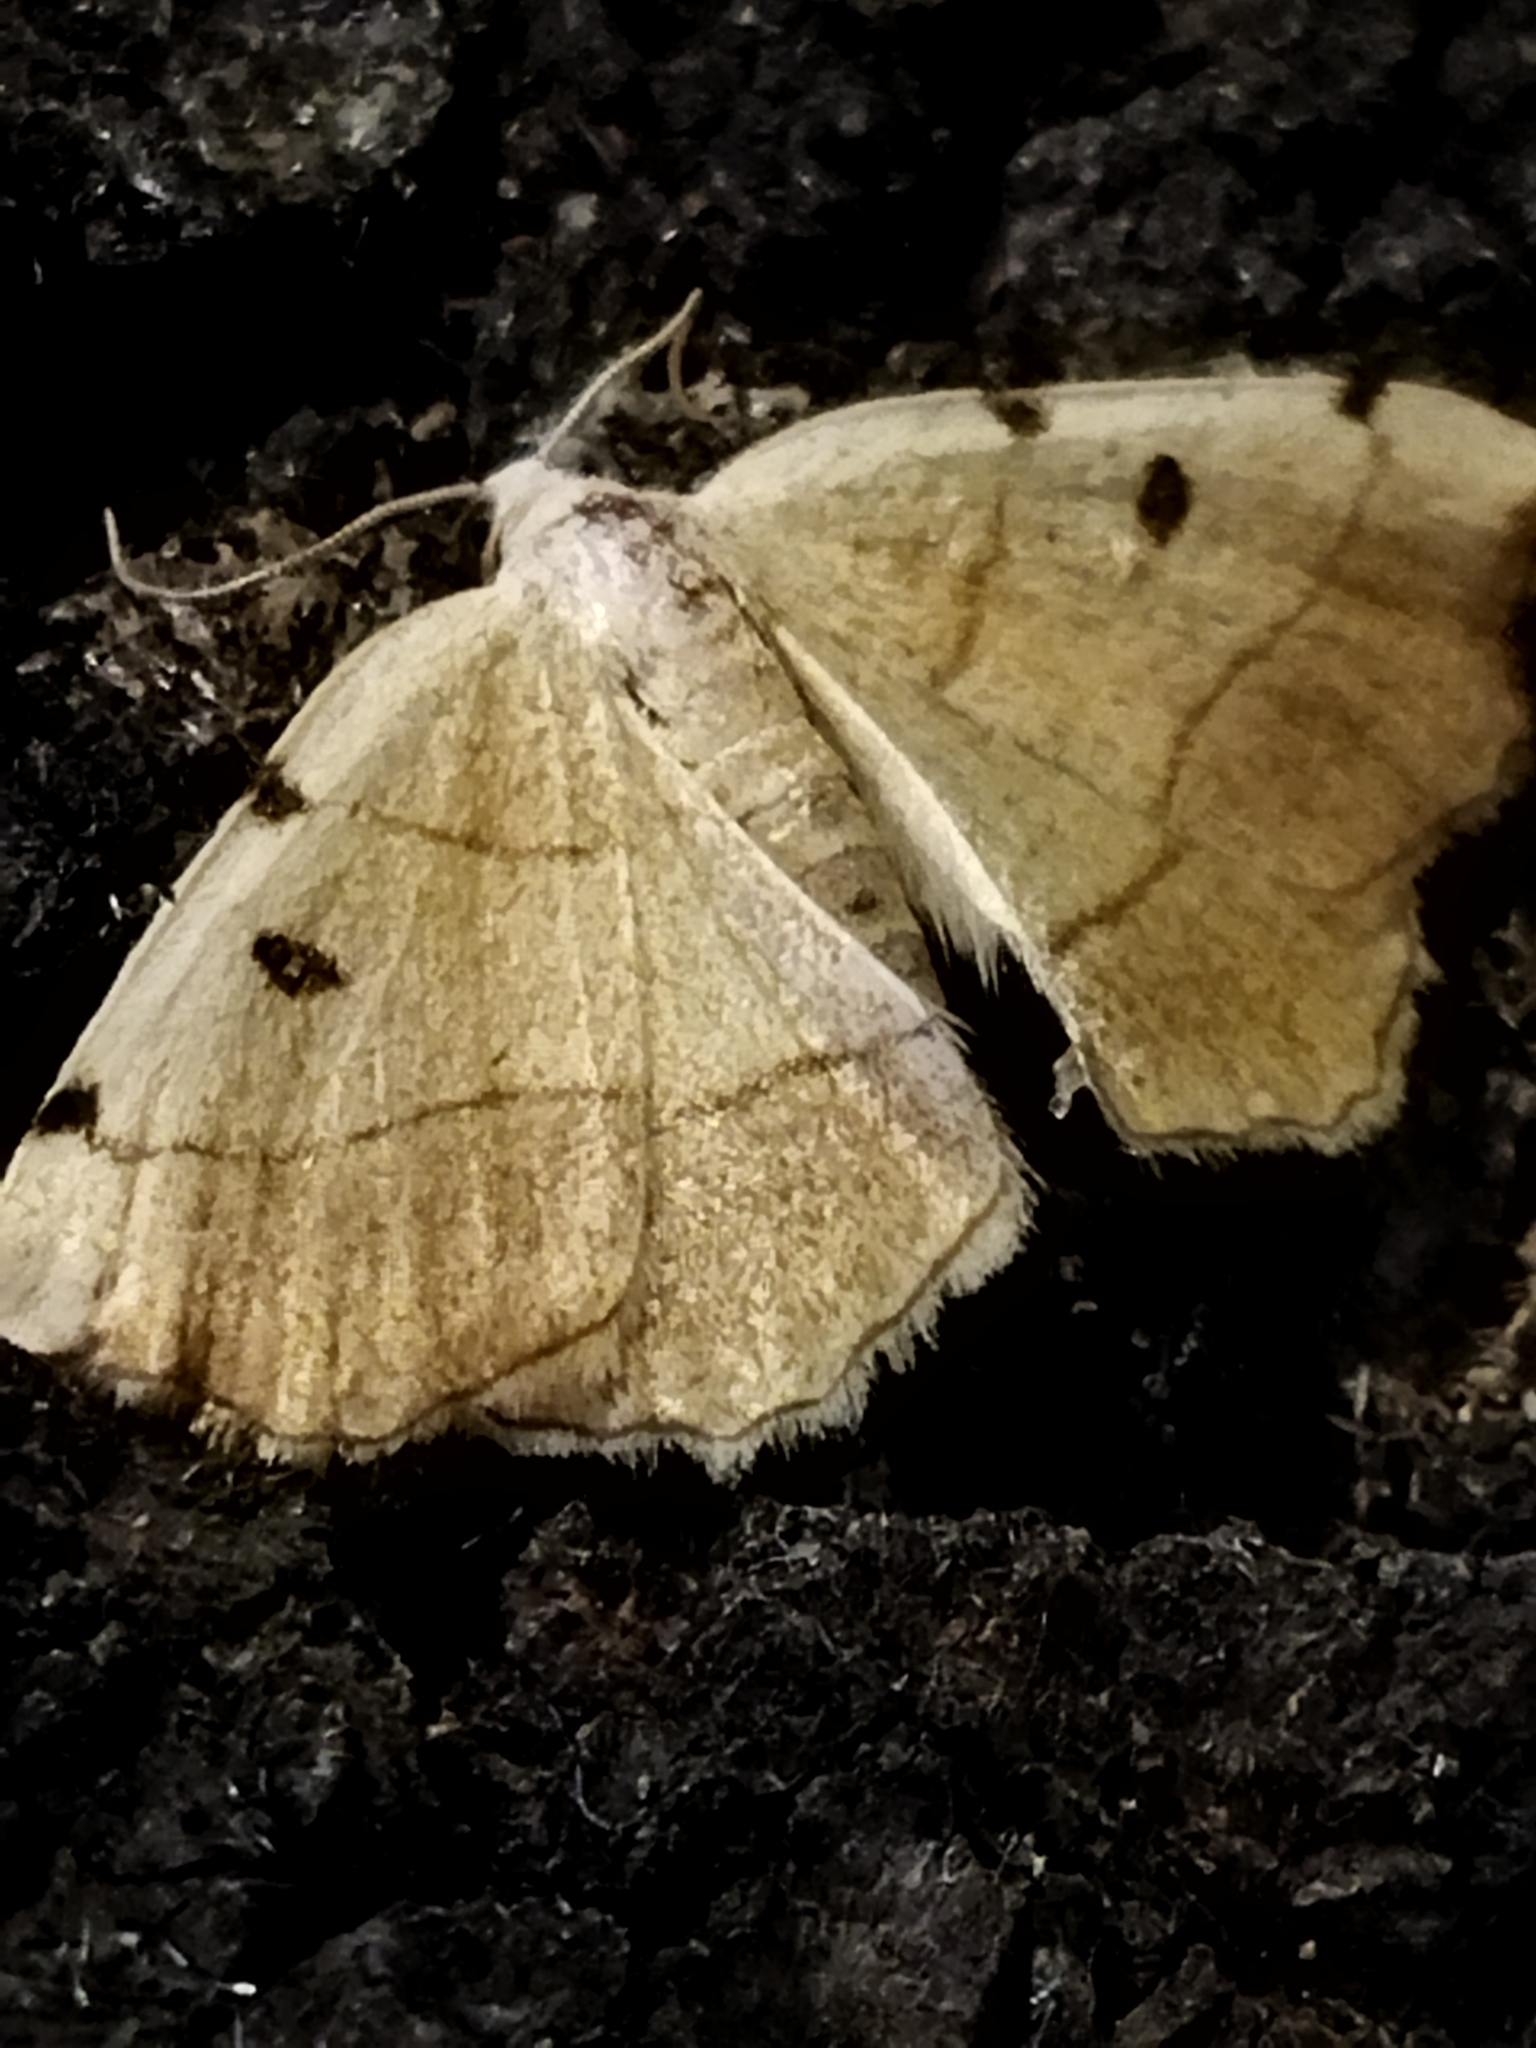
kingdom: Animalia
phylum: Arthropoda
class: Insecta
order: Lepidoptera
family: Geometridae
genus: Eilicrinia
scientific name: Eilicrinia trinotata
